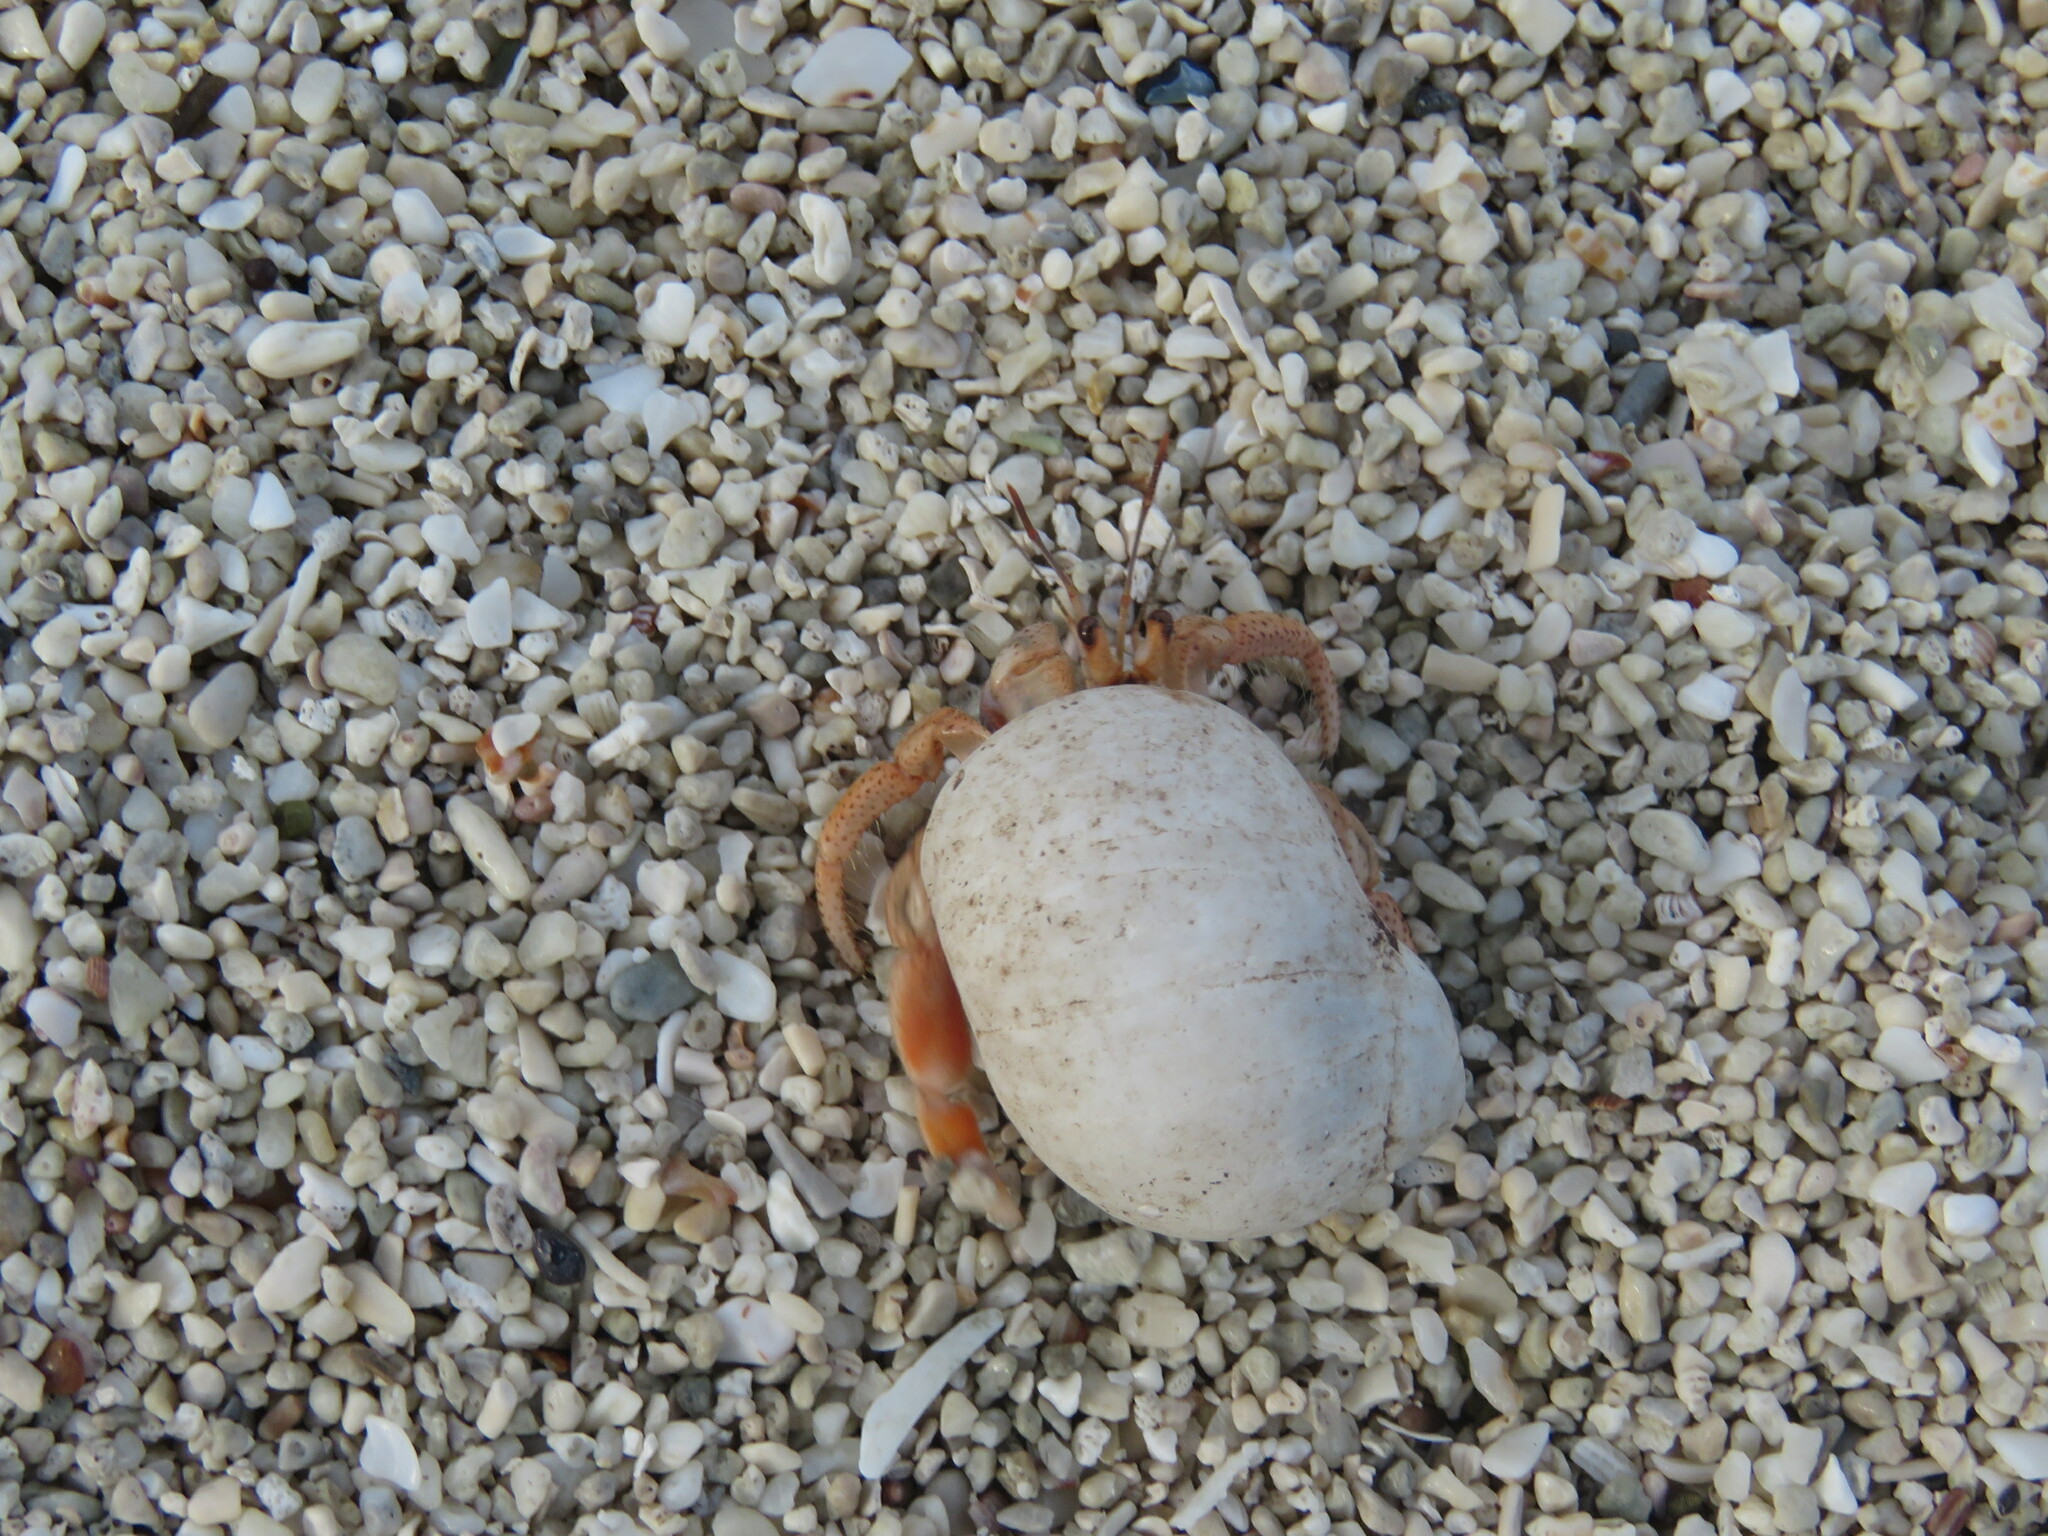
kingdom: Animalia
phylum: Arthropoda
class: Malacostraca
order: Decapoda
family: Coenobitidae
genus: Coenobita
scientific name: Coenobita clypeatus
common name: Caribbean hermit crab
